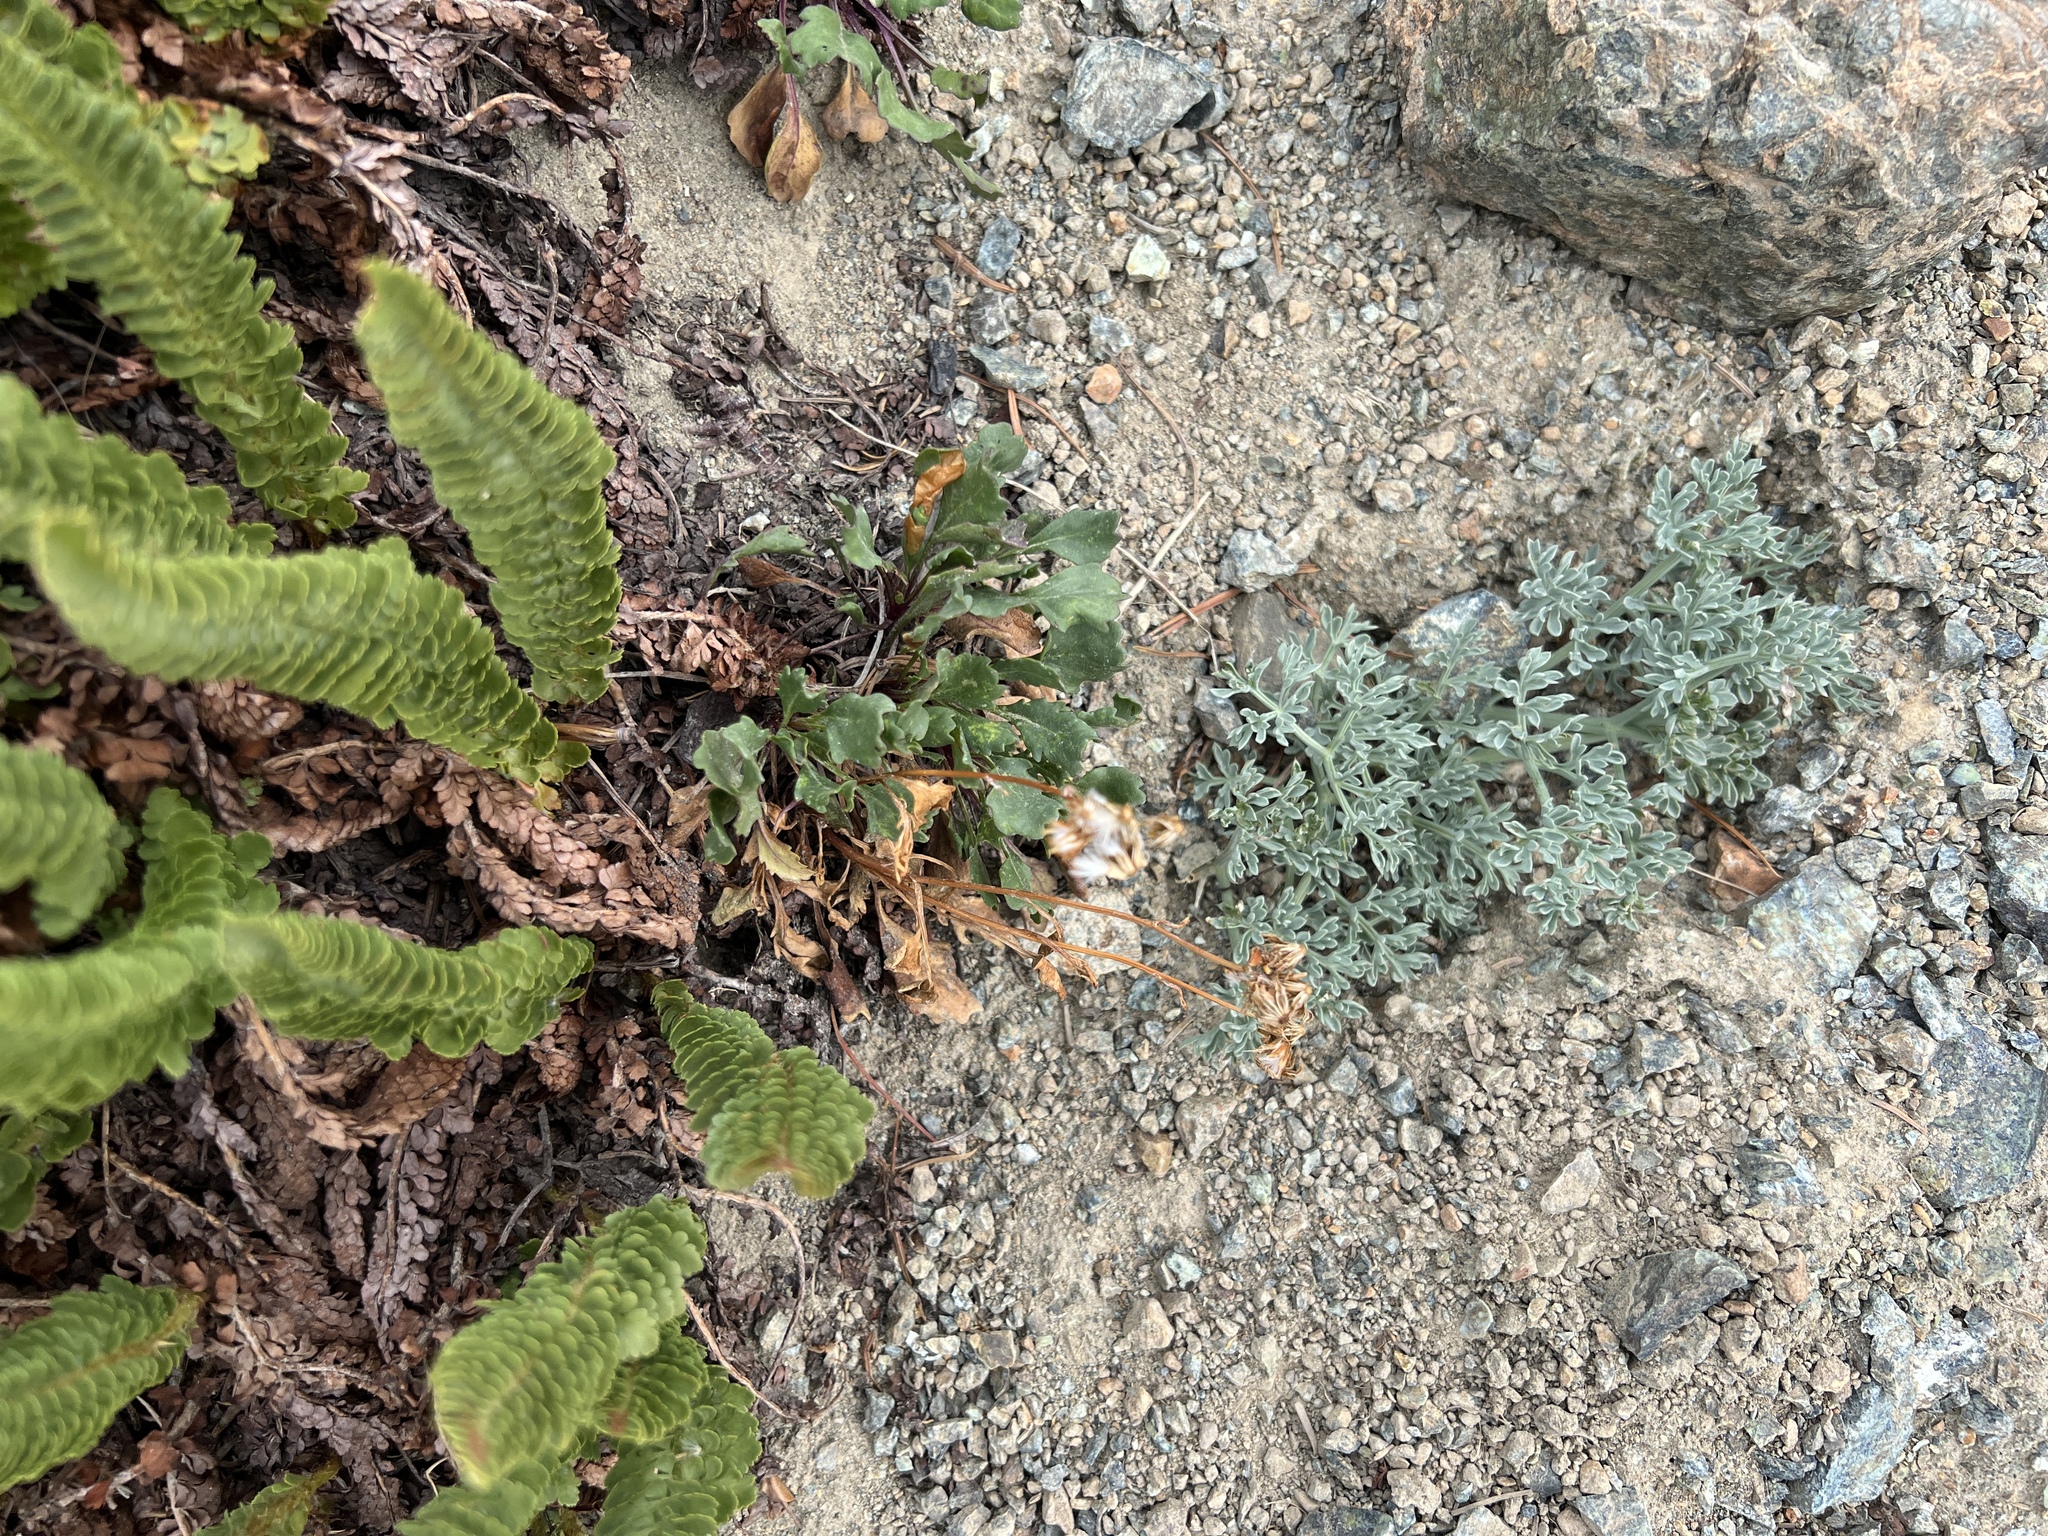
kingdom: Plantae
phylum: Tracheophyta
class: Polypodiopsida
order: Polypodiales
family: Dryopteridaceae
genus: Polystichum
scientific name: Polystichum lemmonii
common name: Lemmon's holly fern
